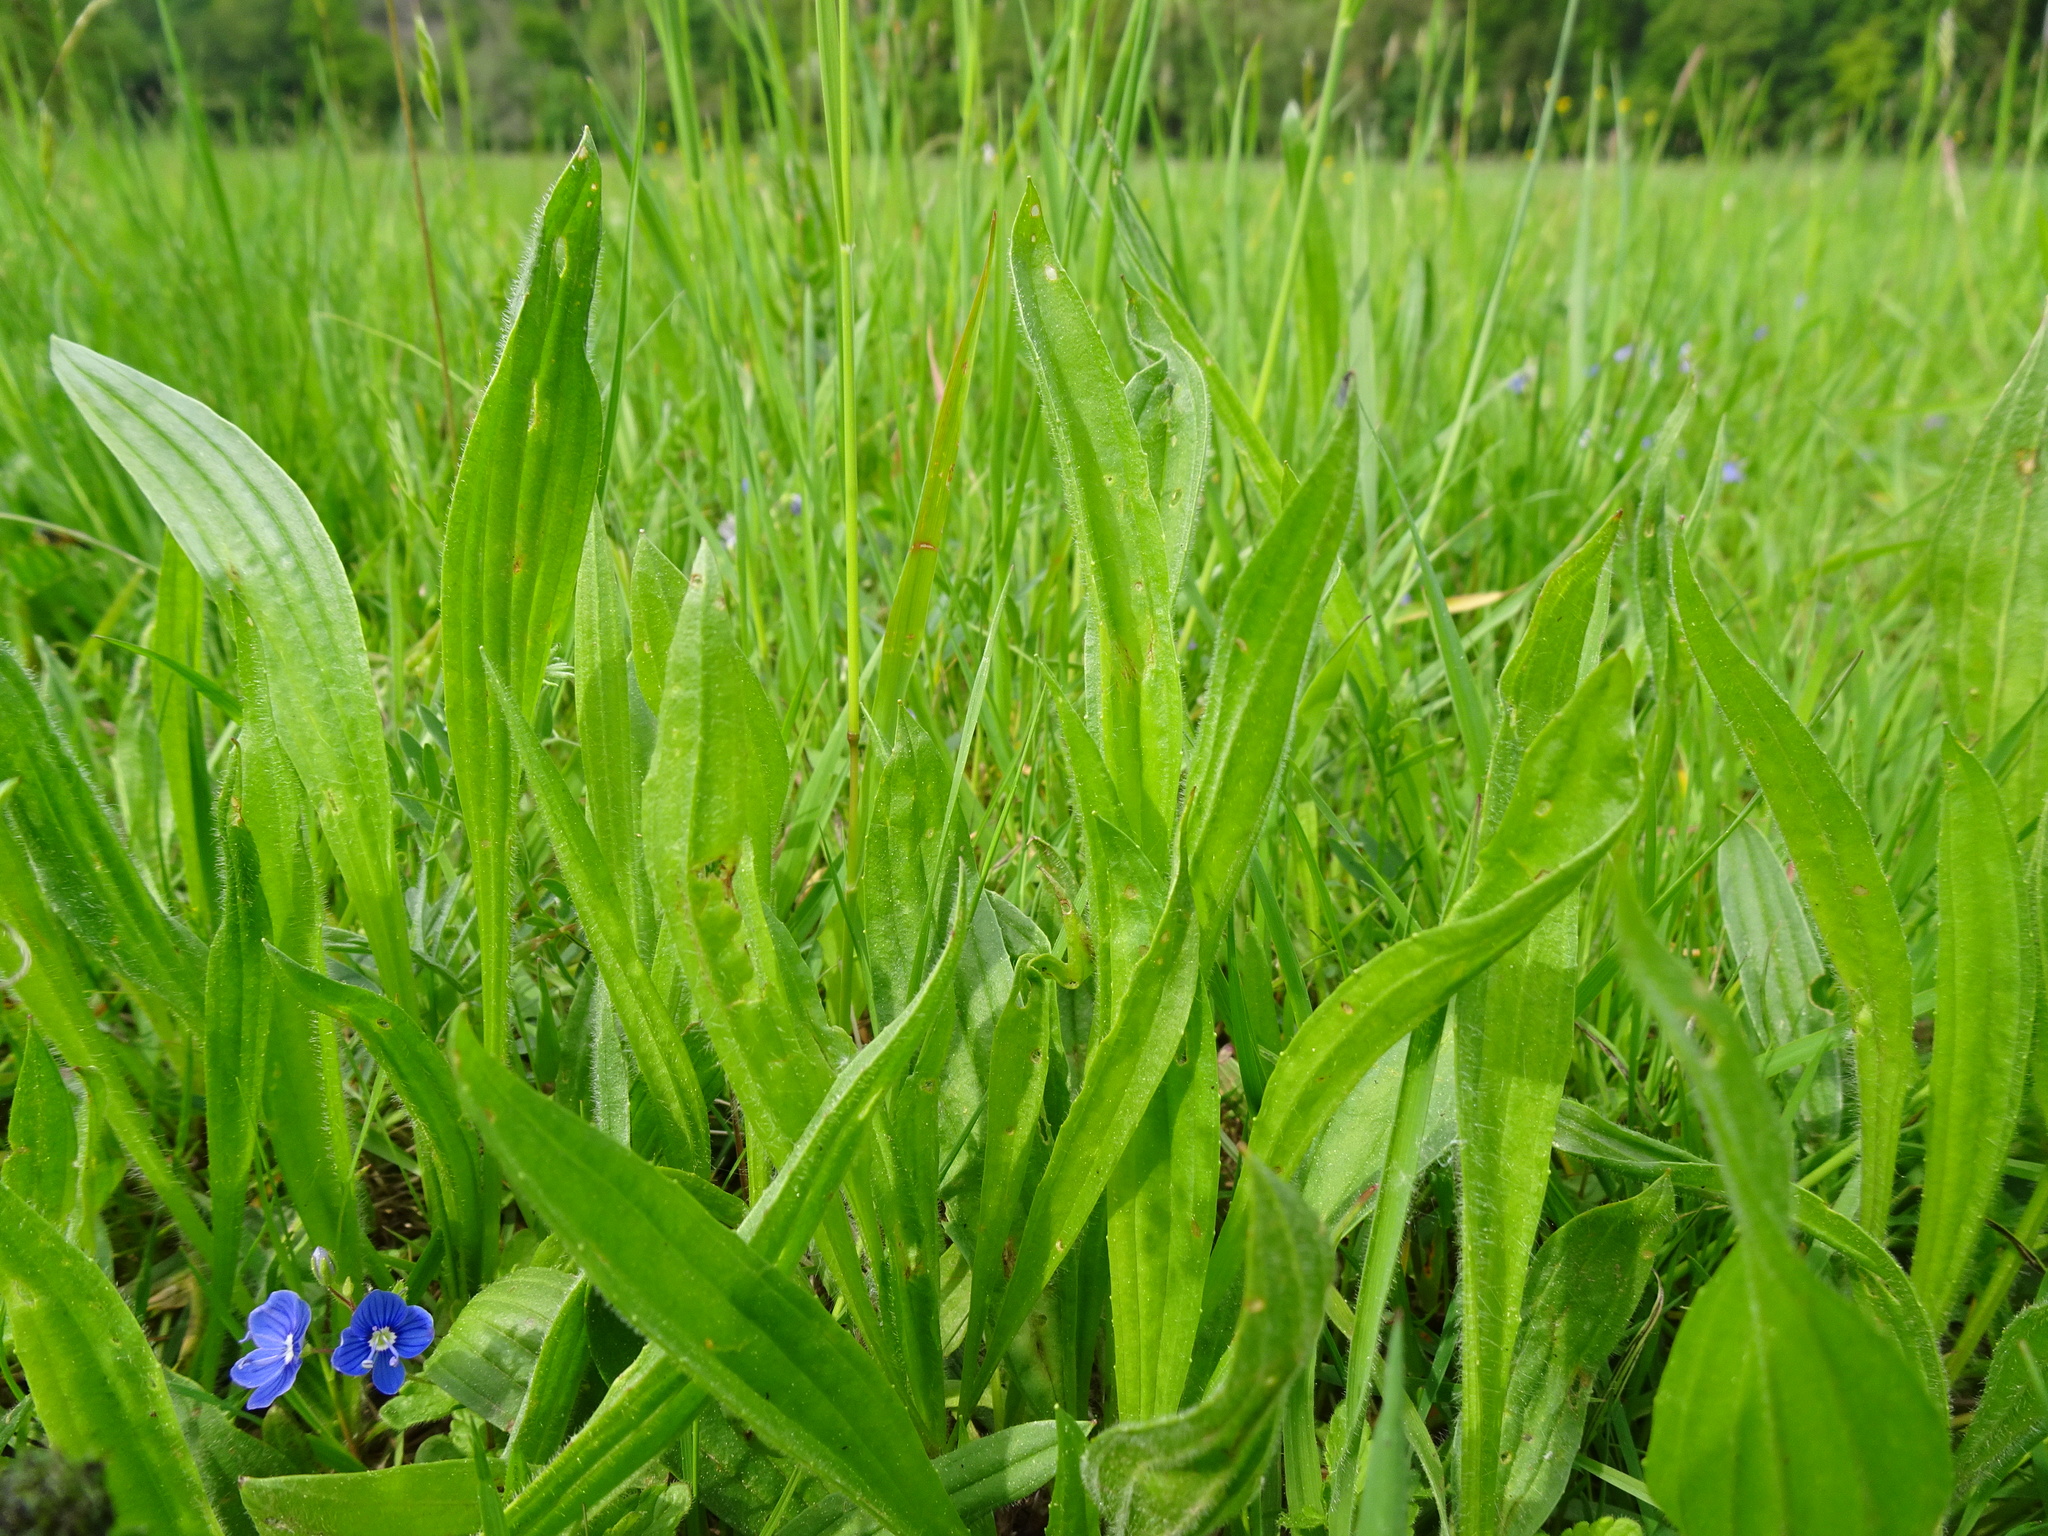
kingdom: Plantae
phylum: Tracheophyta
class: Magnoliopsida
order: Lamiales
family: Plantaginaceae
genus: Plantago
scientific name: Plantago lanceolata
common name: Ribwort plantain
